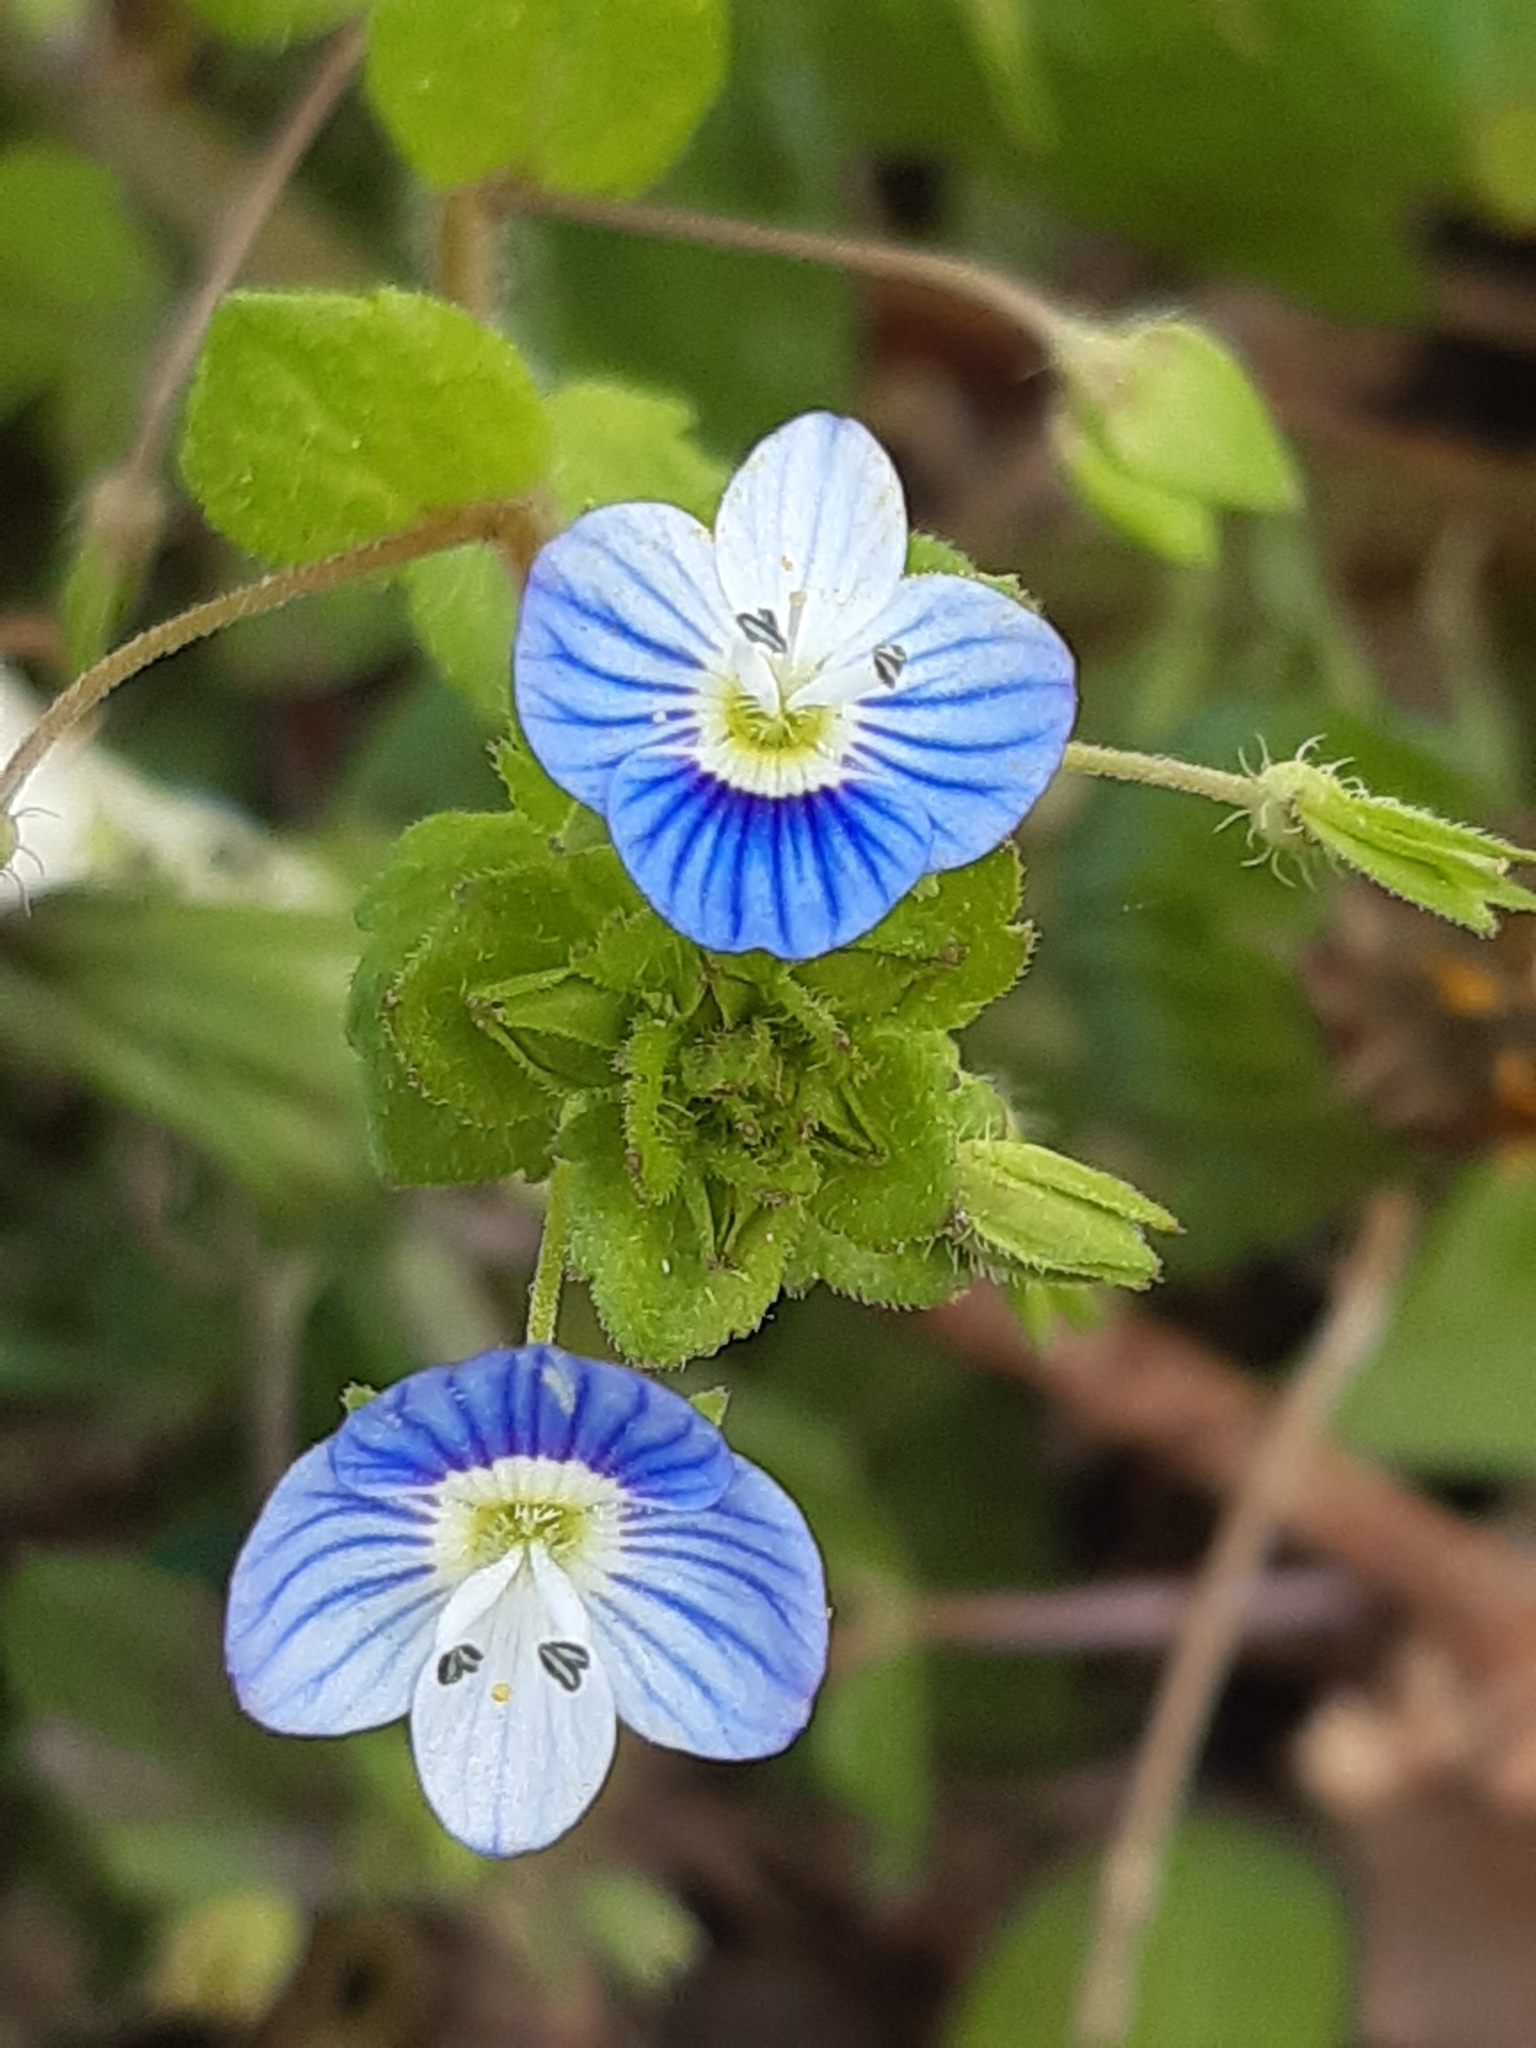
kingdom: Plantae
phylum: Tracheophyta
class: Magnoliopsida
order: Lamiales
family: Plantaginaceae
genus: Veronica
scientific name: Veronica persica
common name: Common field-speedwell
